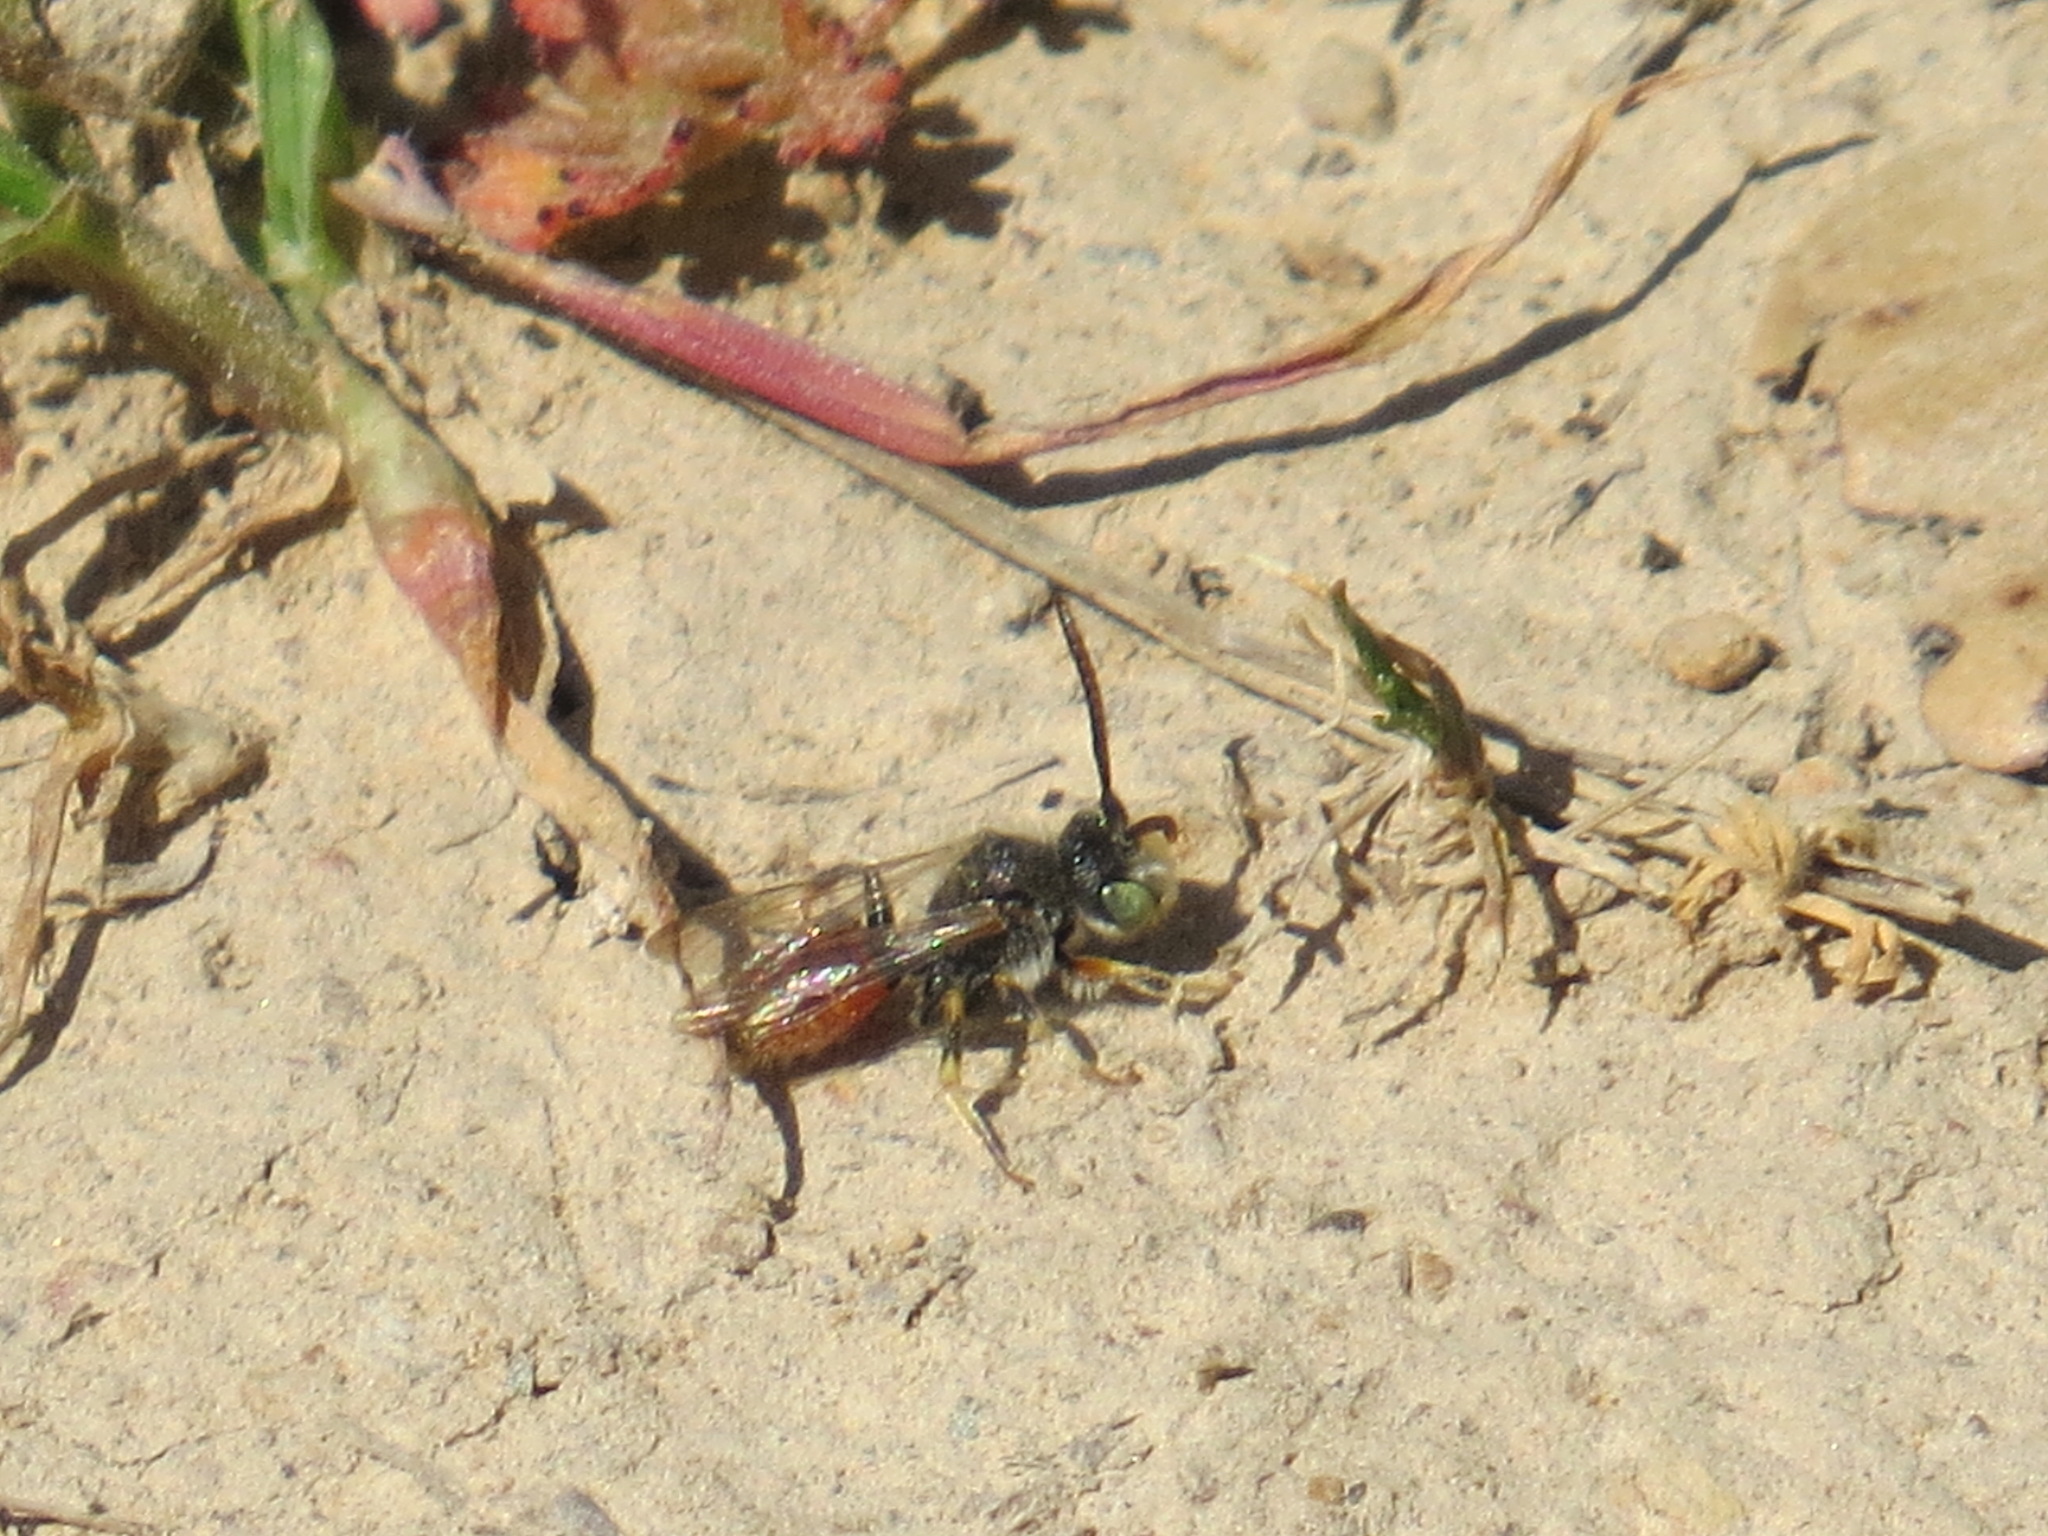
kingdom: Animalia
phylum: Arthropoda
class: Insecta
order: Hymenoptera
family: Apidae
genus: Nomada
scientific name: Nomada
